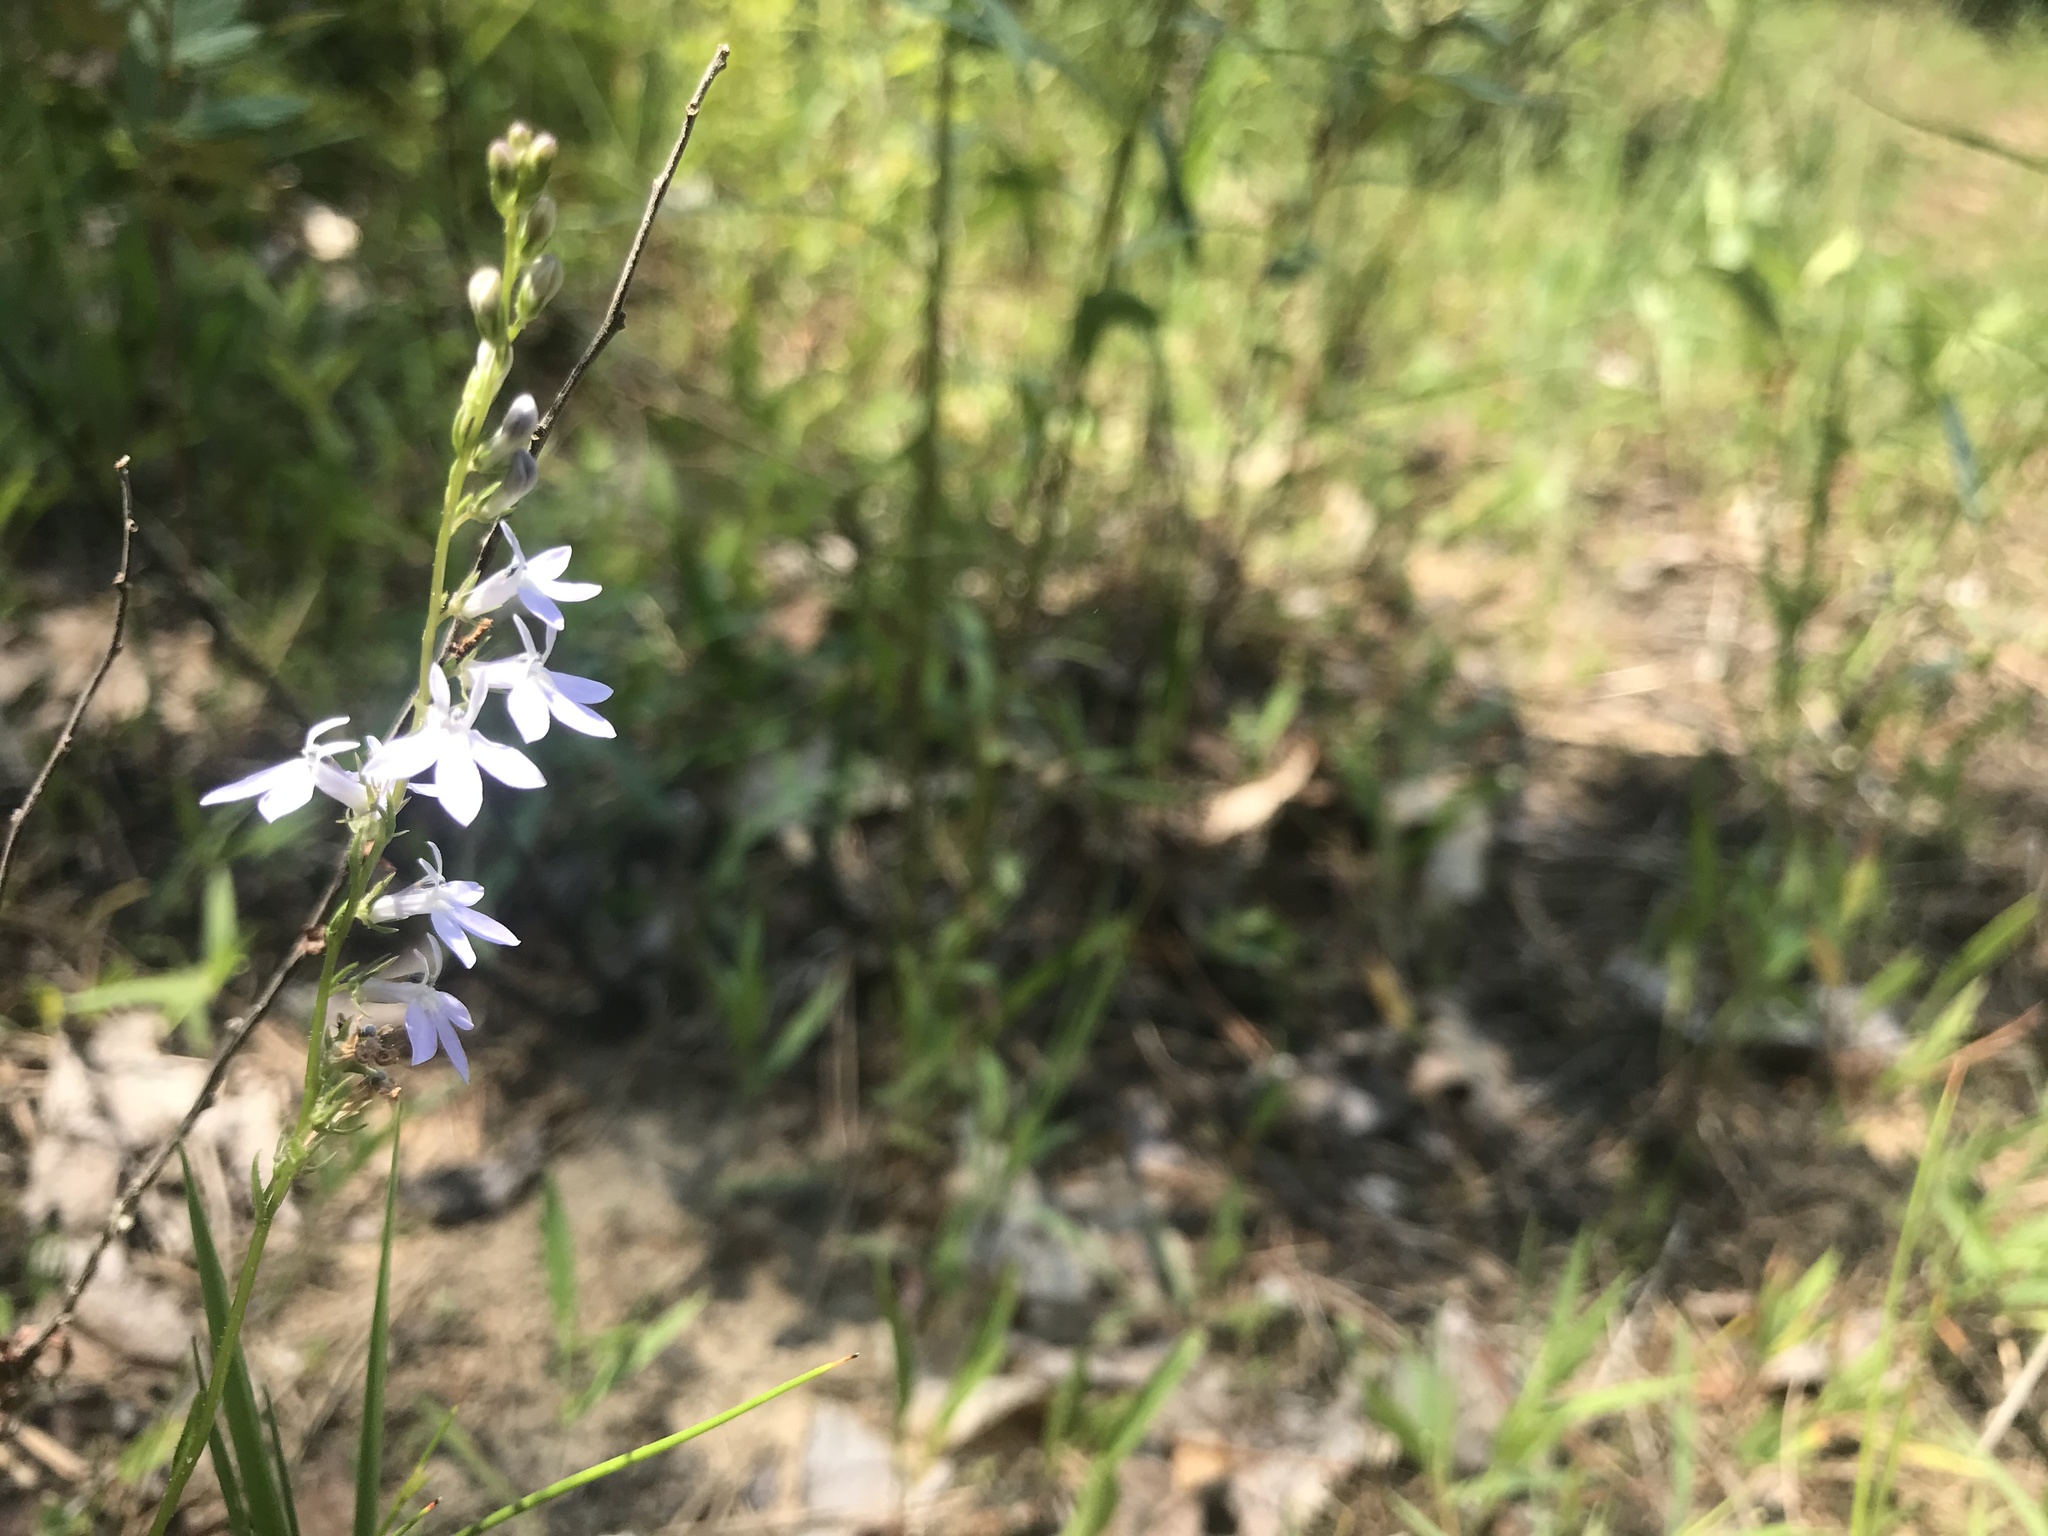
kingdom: Plantae
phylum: Tracheophyta
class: Magnoliopsida
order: Asterales
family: Campanulaceae
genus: Lobelia
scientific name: Lobelia spicata
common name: Pale-spike lobelia
